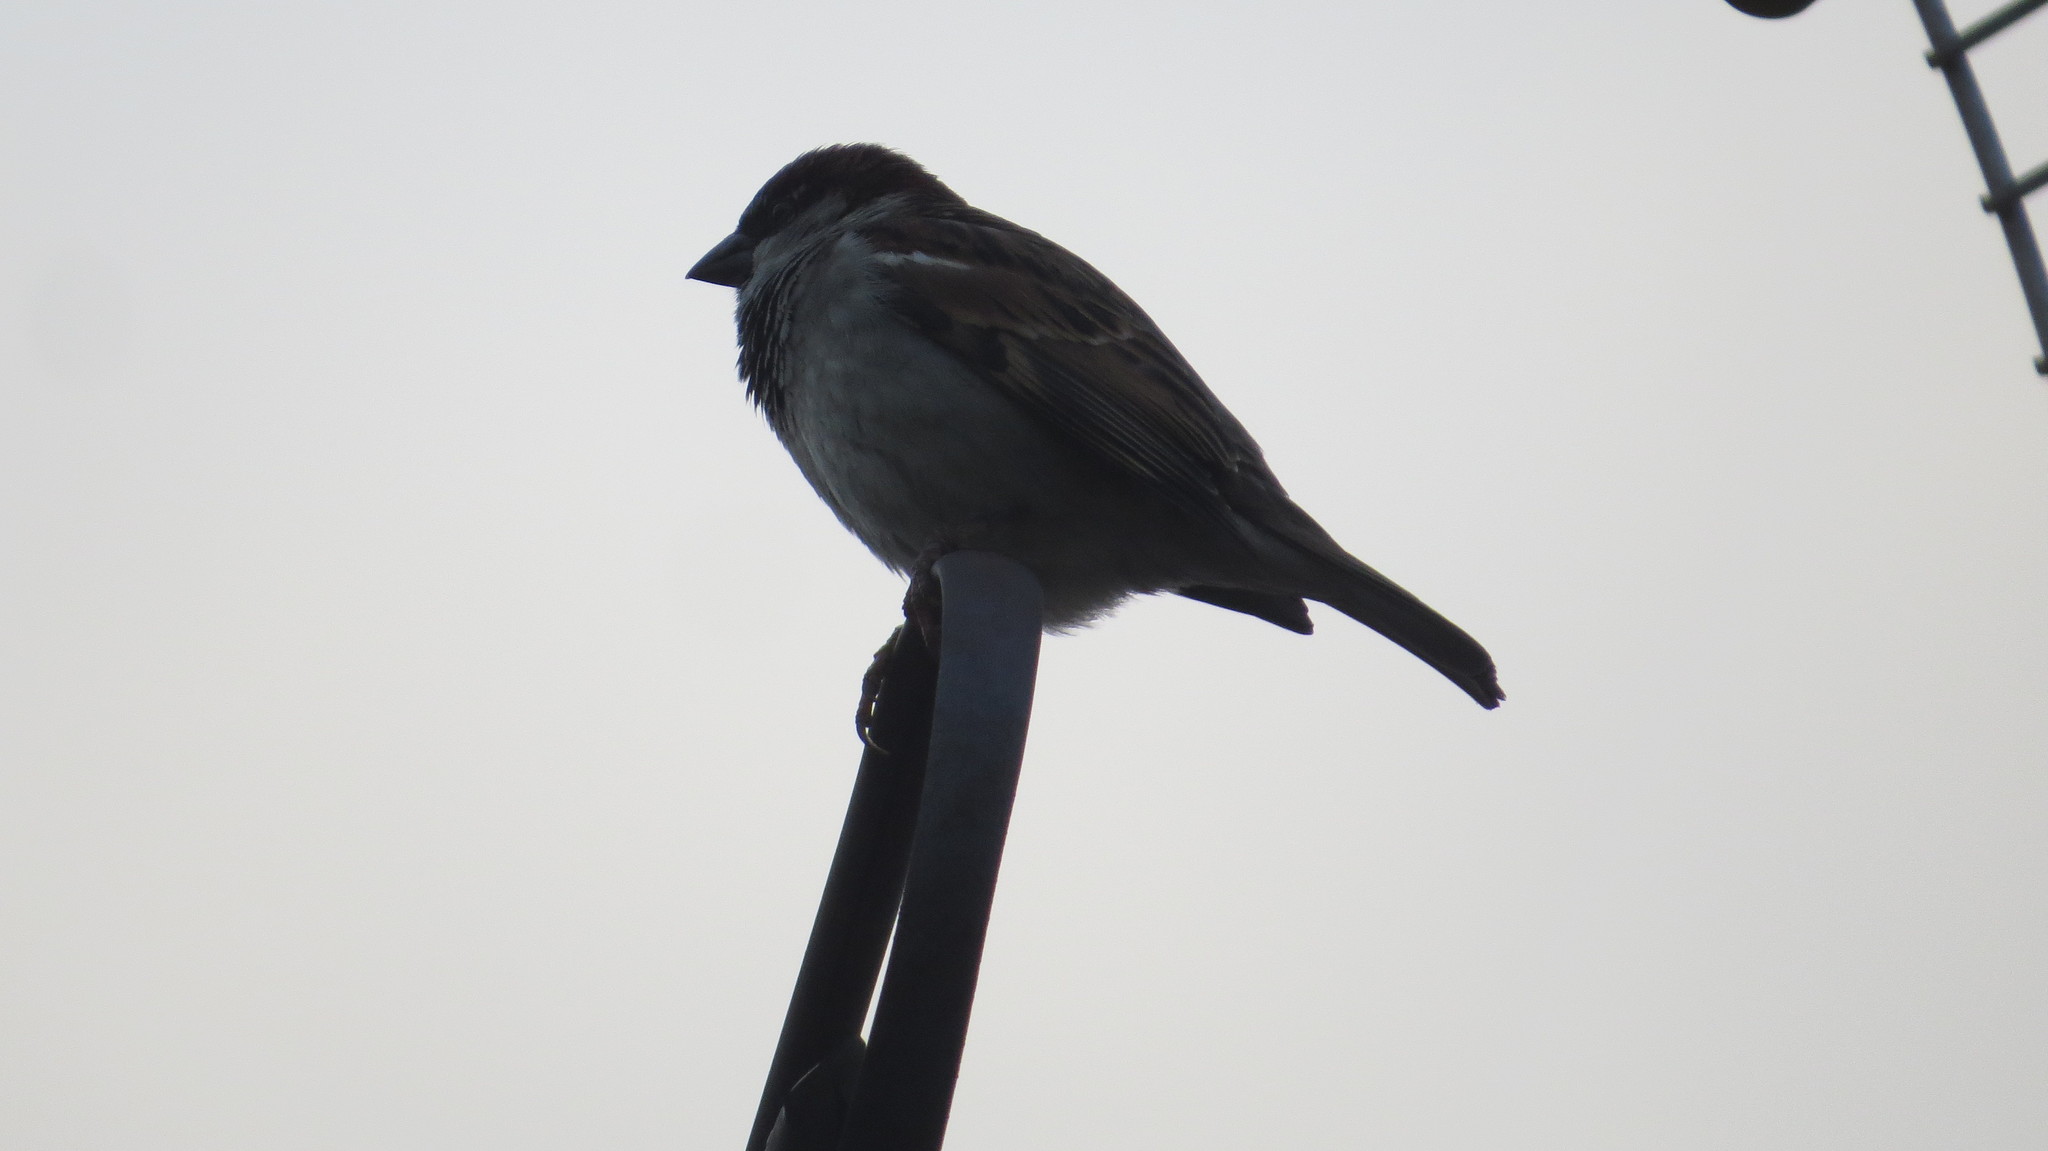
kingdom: Animalia
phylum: Chordata
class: Aves
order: Passeriformes
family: Passeridae
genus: Passer
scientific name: Passer domesticus
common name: House sparrow
